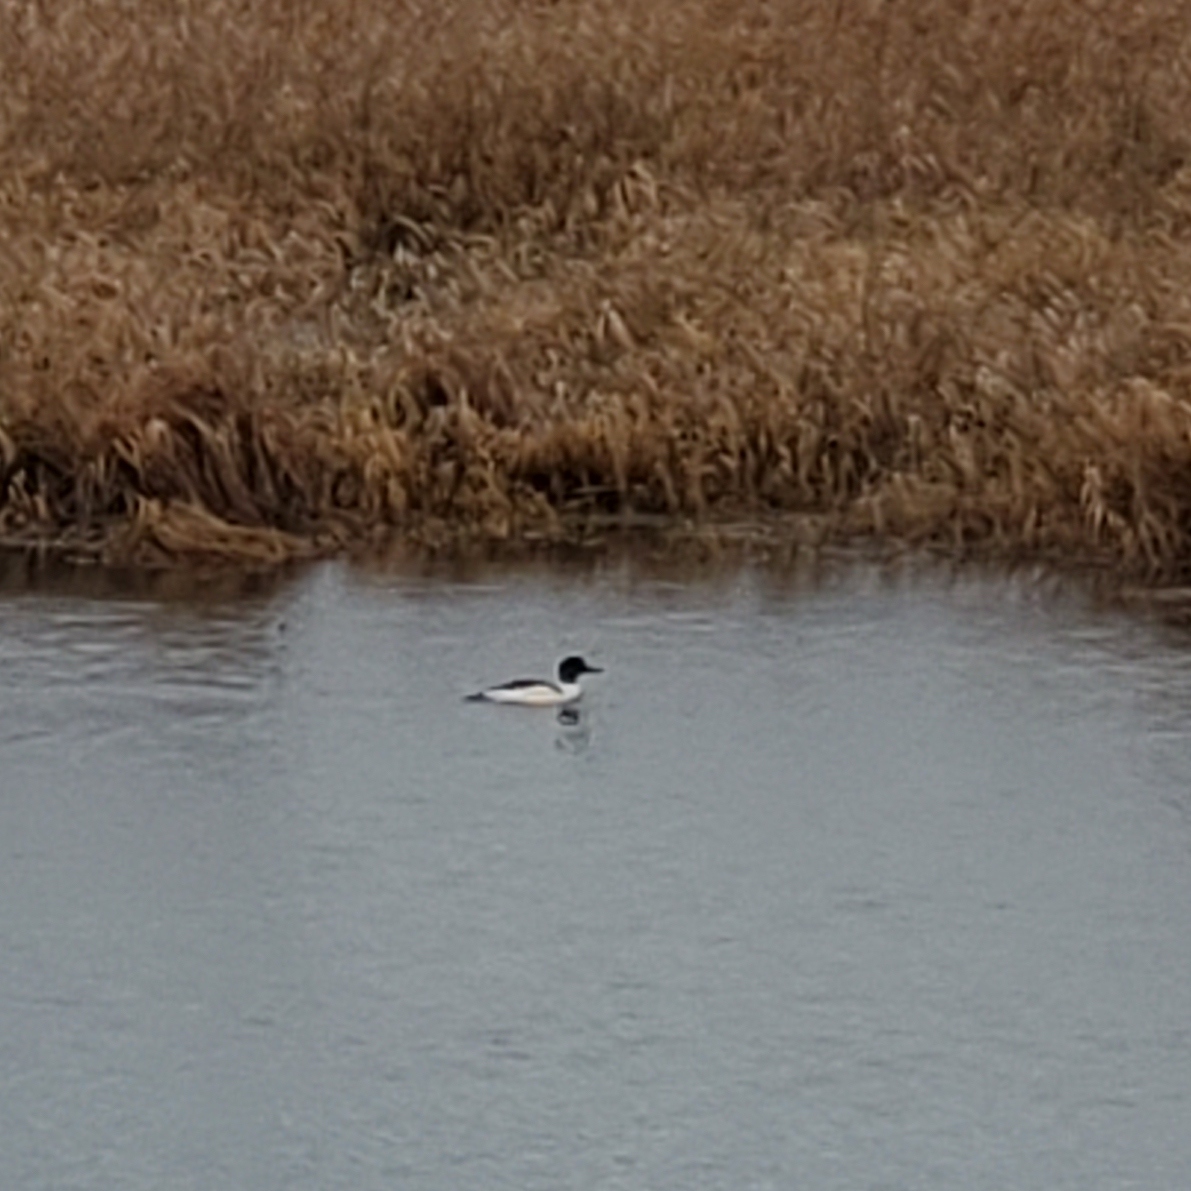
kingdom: Animalia
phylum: Chordata
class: Aves
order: Anseriformes
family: Anatidae
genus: Mergus
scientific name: Mergus merganser
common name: Common merganser
